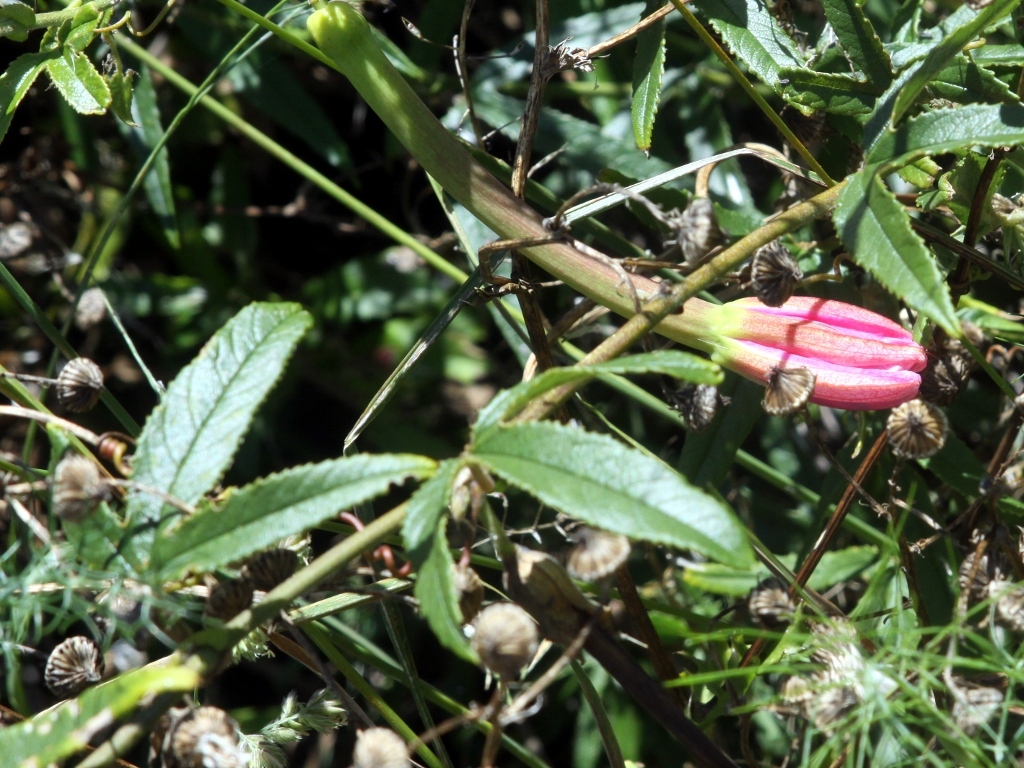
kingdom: Plantae
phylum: Tracheophyta
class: Magnoliopsida
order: Malpighiales
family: Passifloraceae
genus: Passiflora
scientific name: Passiflora tripartita
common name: Banana poka
